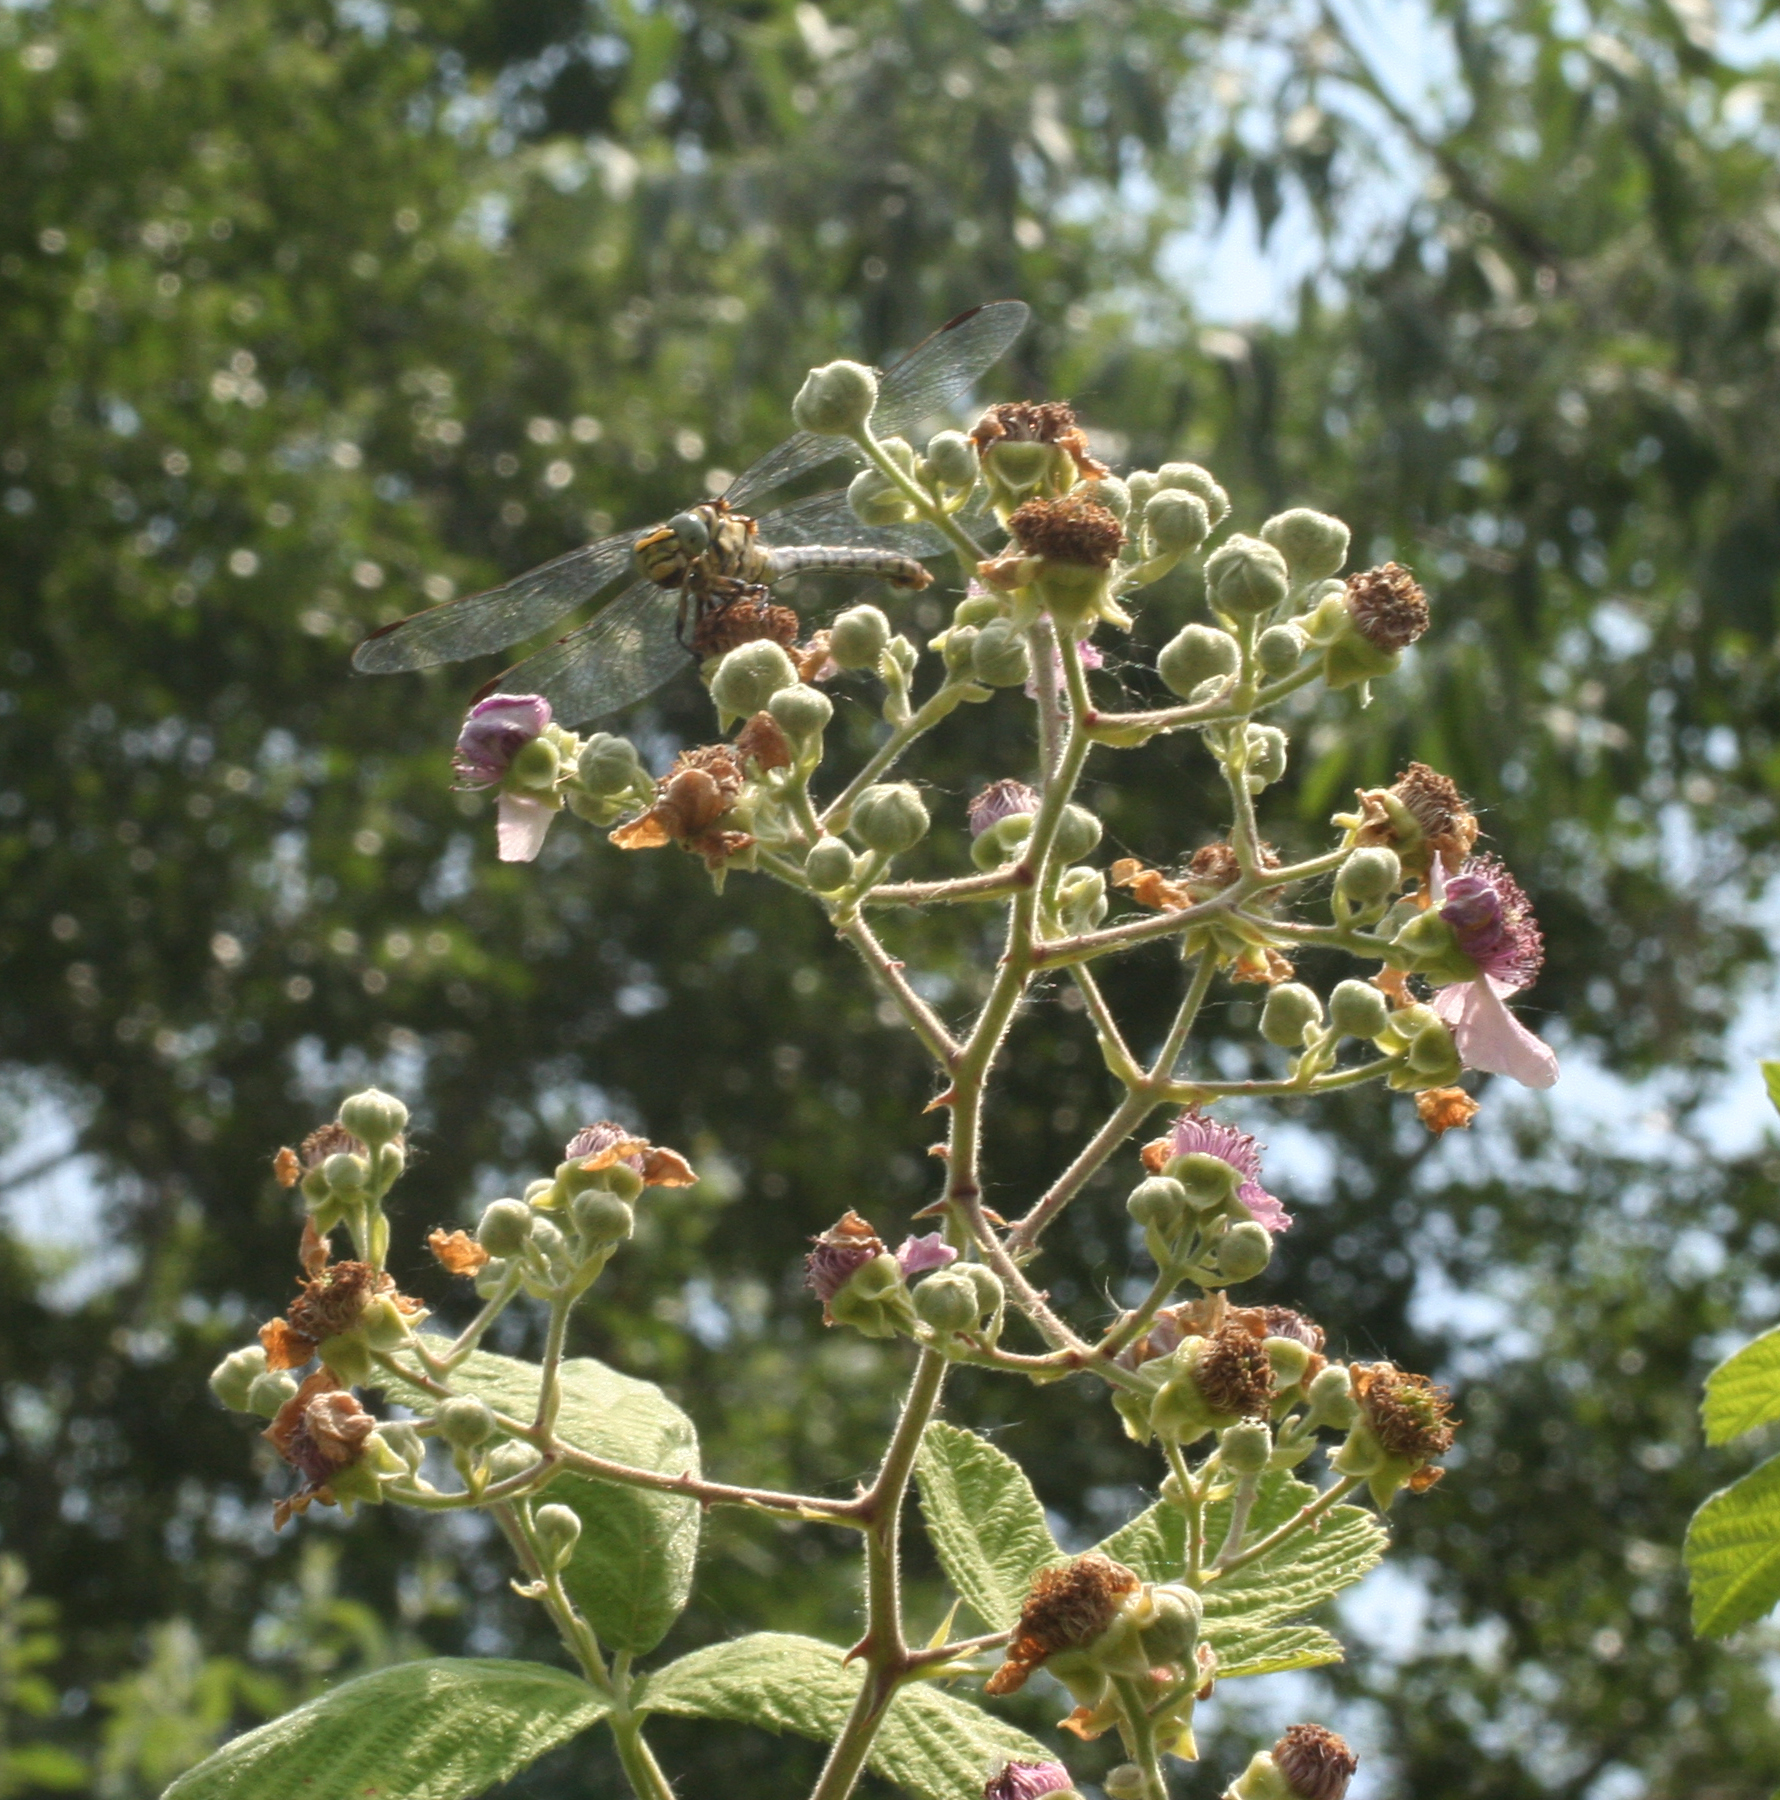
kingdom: Plantae
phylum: Tracheophyta
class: Magnoliopsida
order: Rosales
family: Rosaceae
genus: Rubus
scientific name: Rubus sanctus
